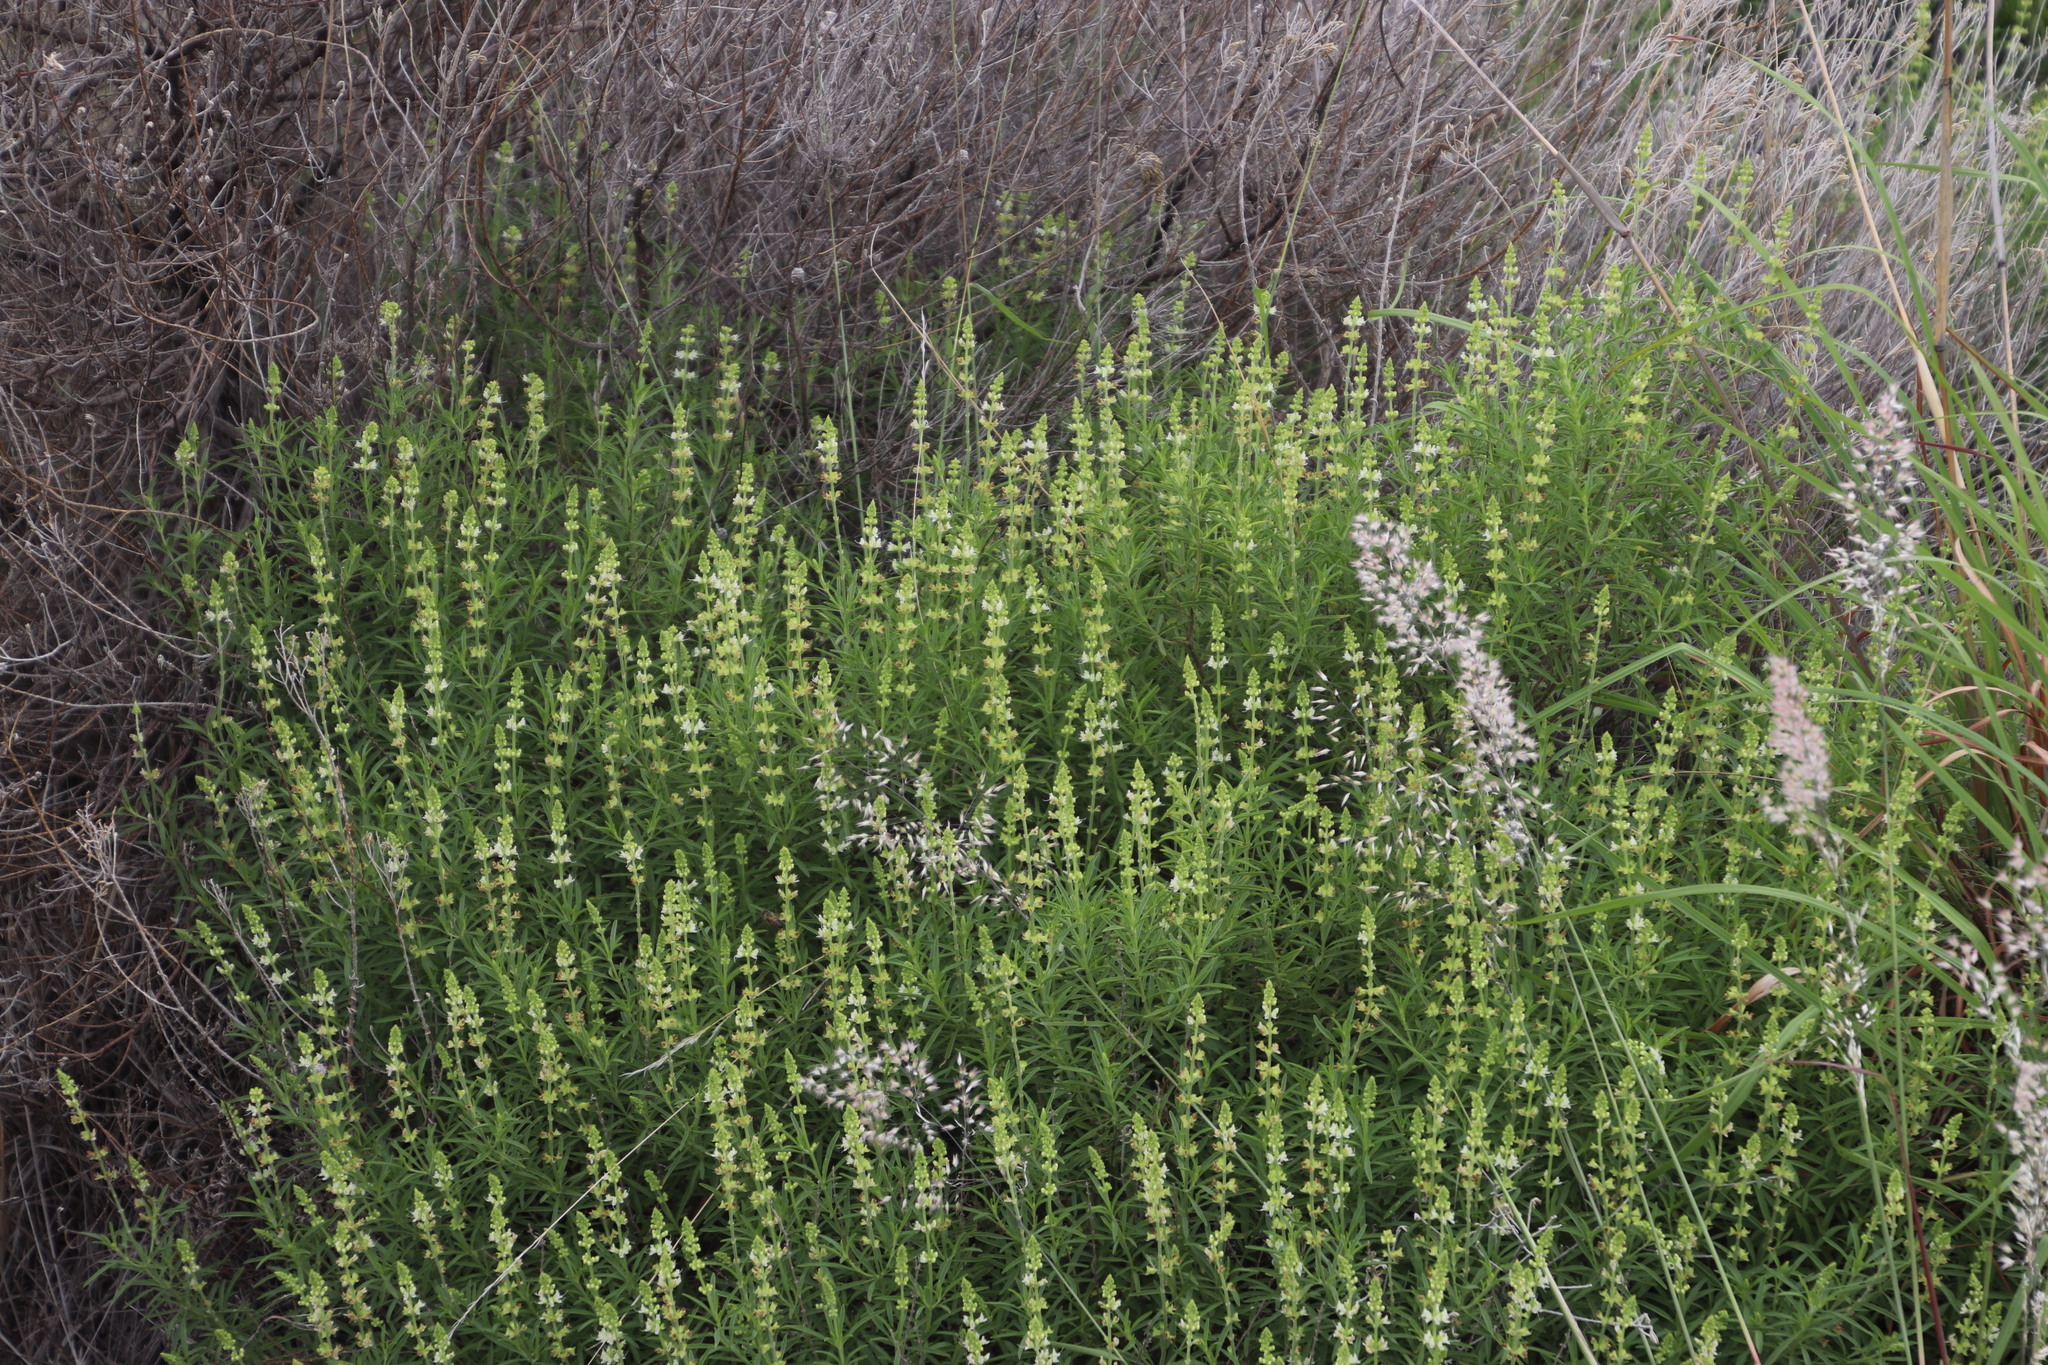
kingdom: Plantae
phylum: Tracheophyta
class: Magnoliopsida
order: Lamiales
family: Lamiaceae
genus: Ocimum
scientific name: Ocimum angustifolium
